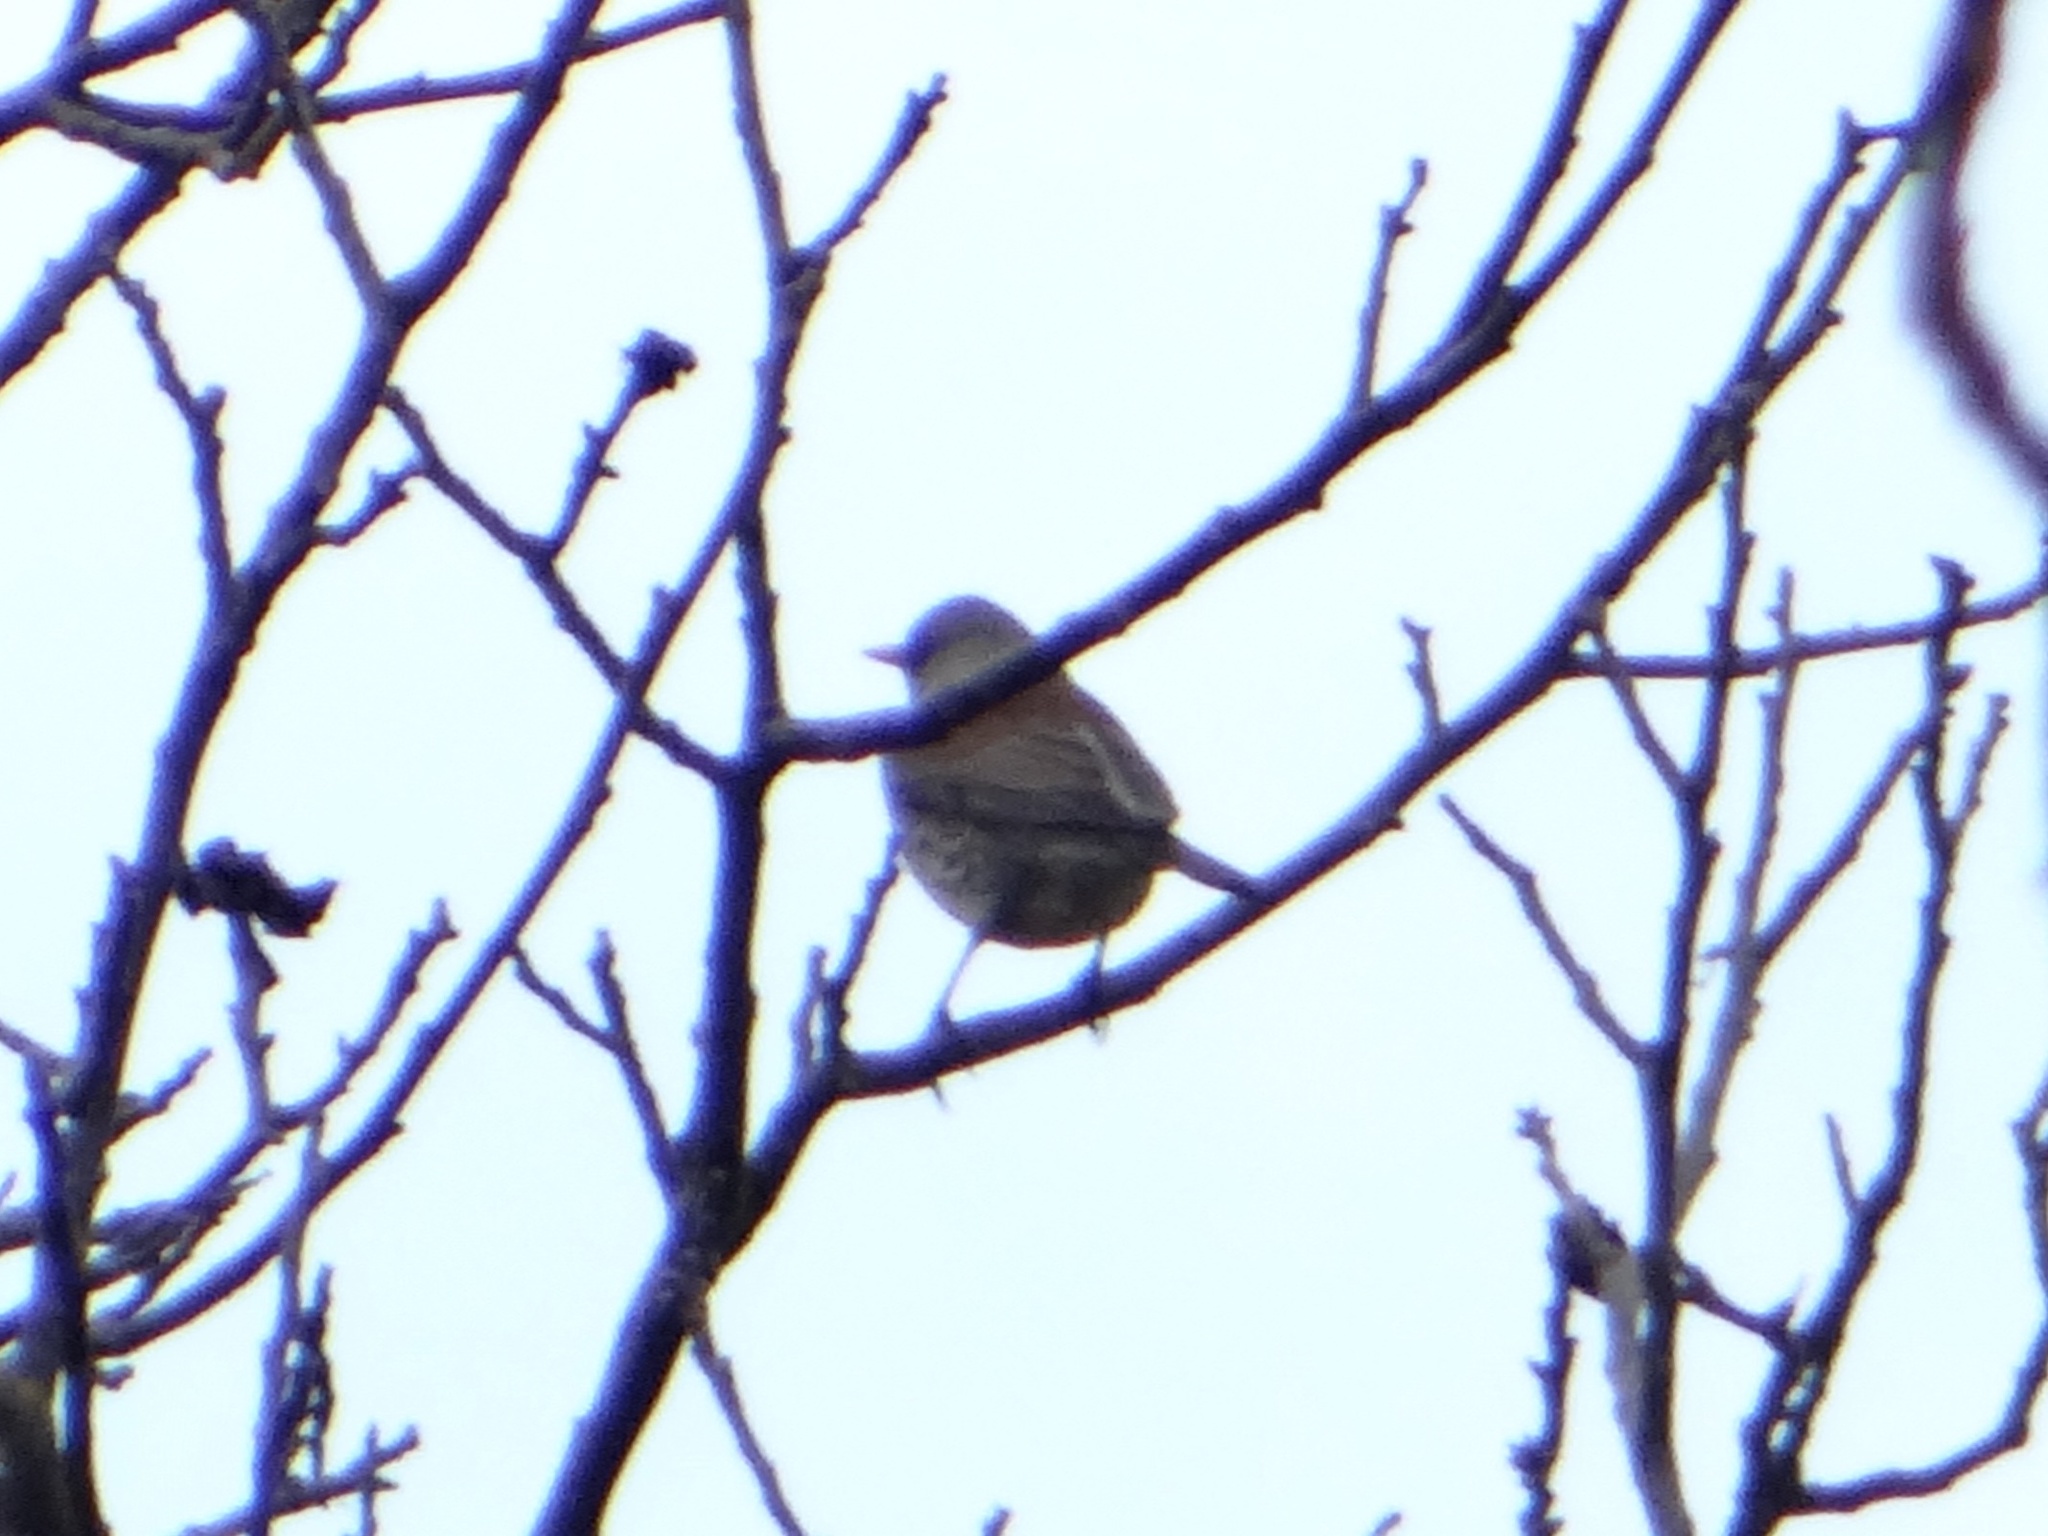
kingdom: Animalia
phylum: Chordata
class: Aves
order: Passeriformes
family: Turdidae
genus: Turdus
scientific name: Turdus pilaris
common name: Fieldfare
